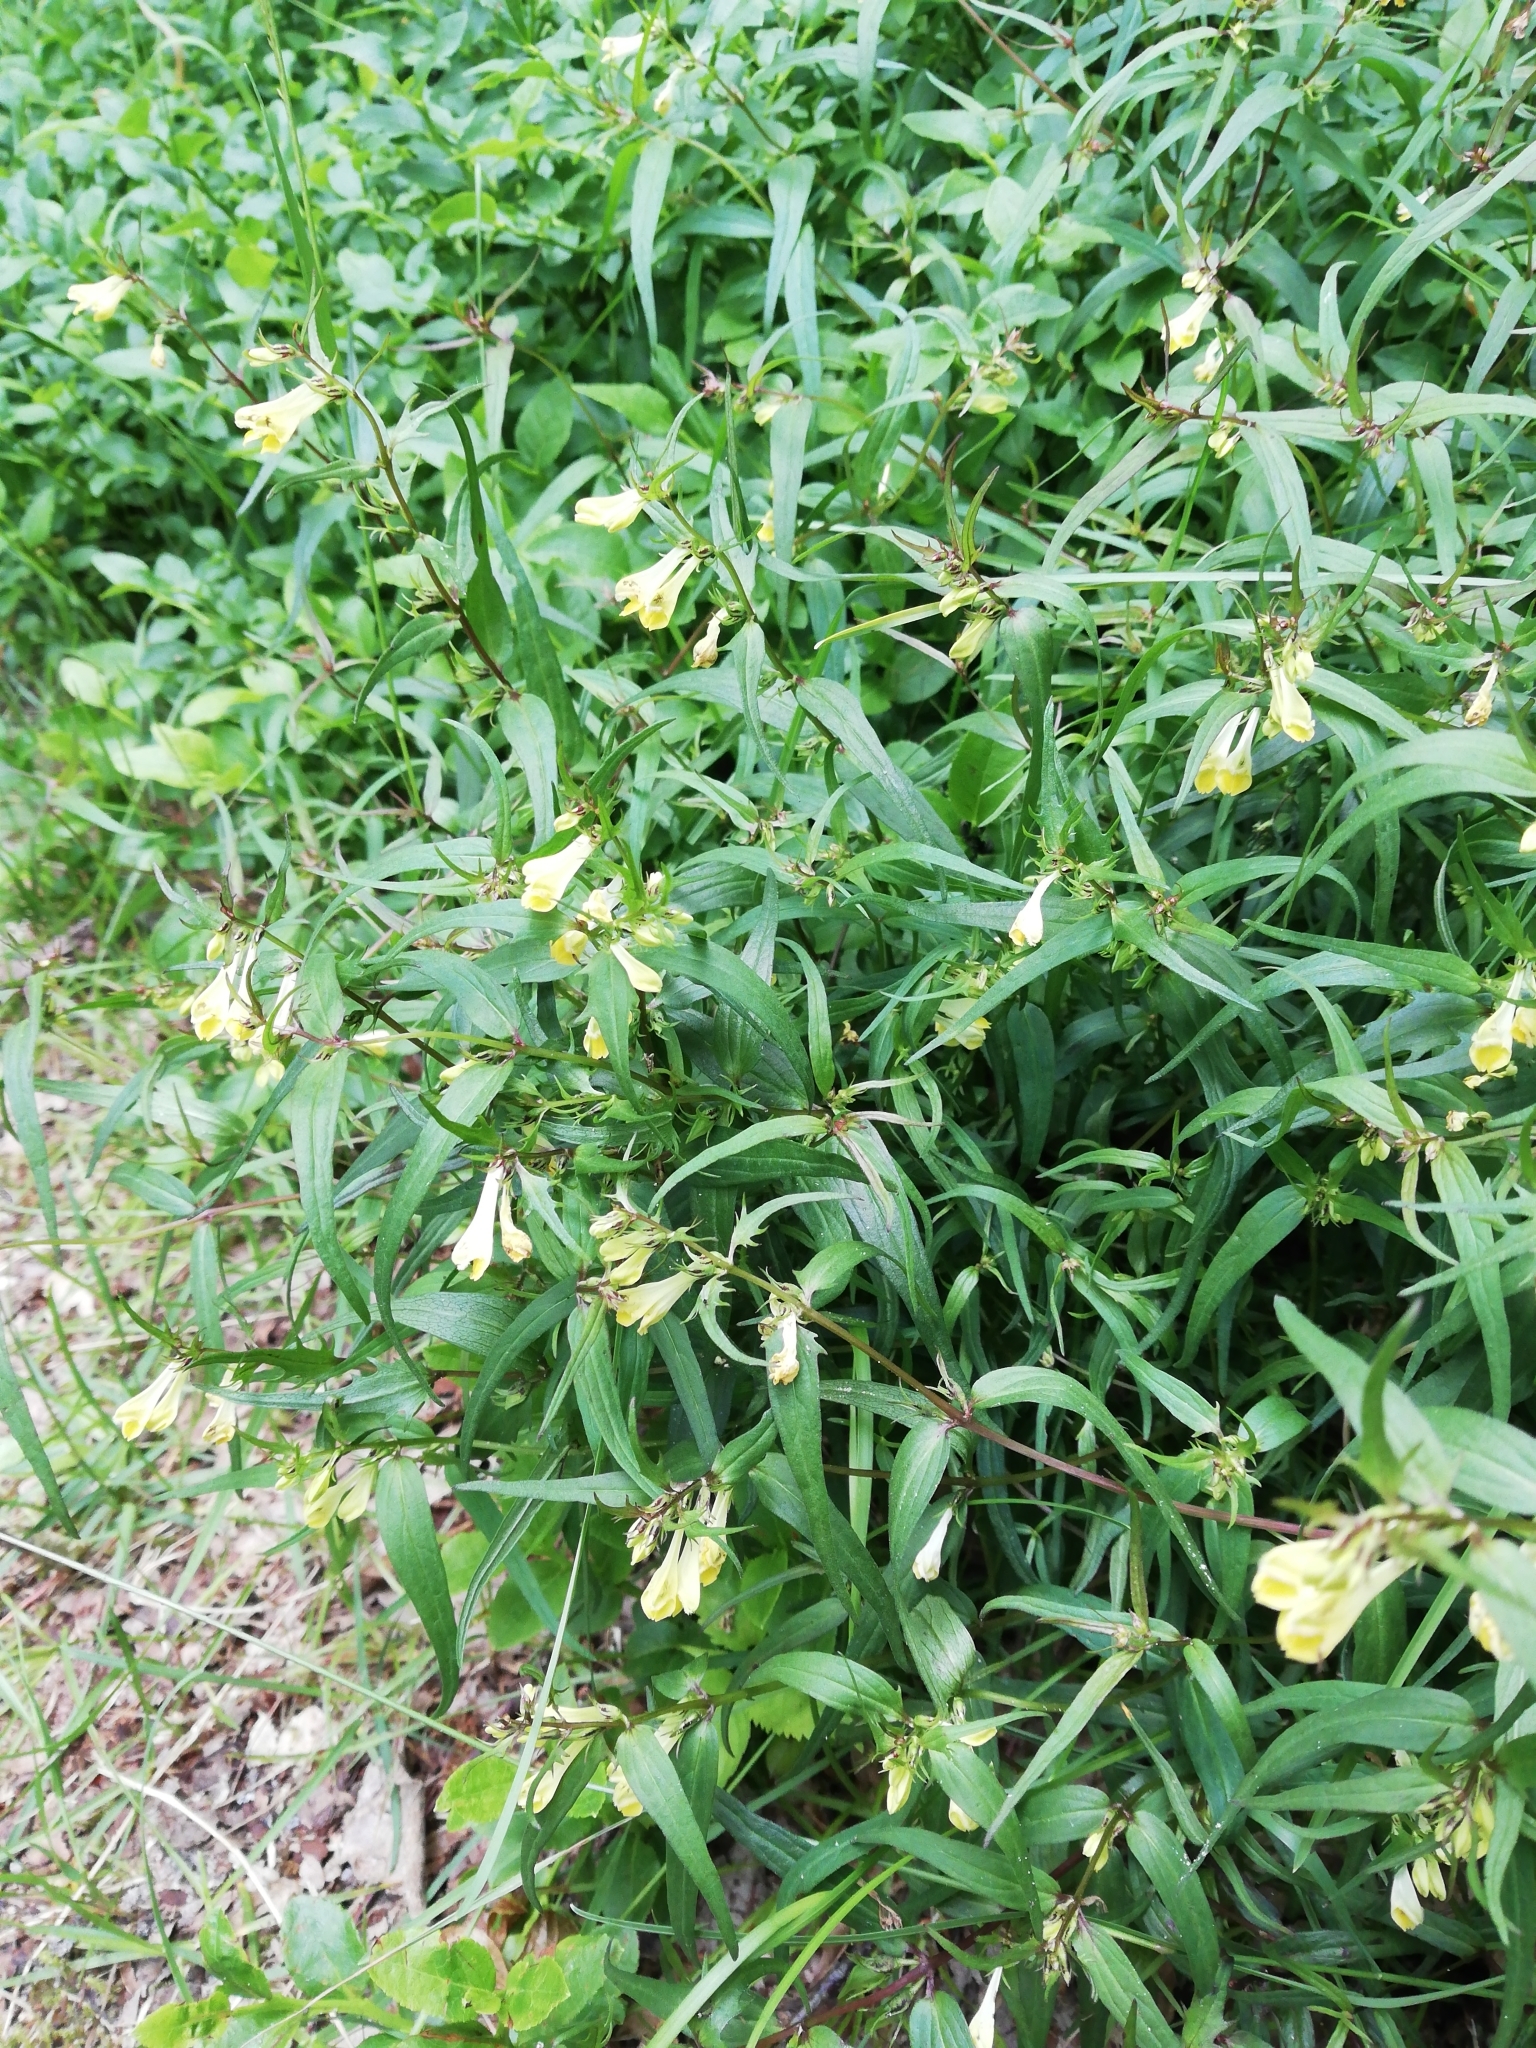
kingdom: Plantae
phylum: Tracheophyta
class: Magnoliopsida
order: Lamiales
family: Orobanchaceae
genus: Melampyrum
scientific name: Melampyrum pratense
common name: Common cow-wheat
